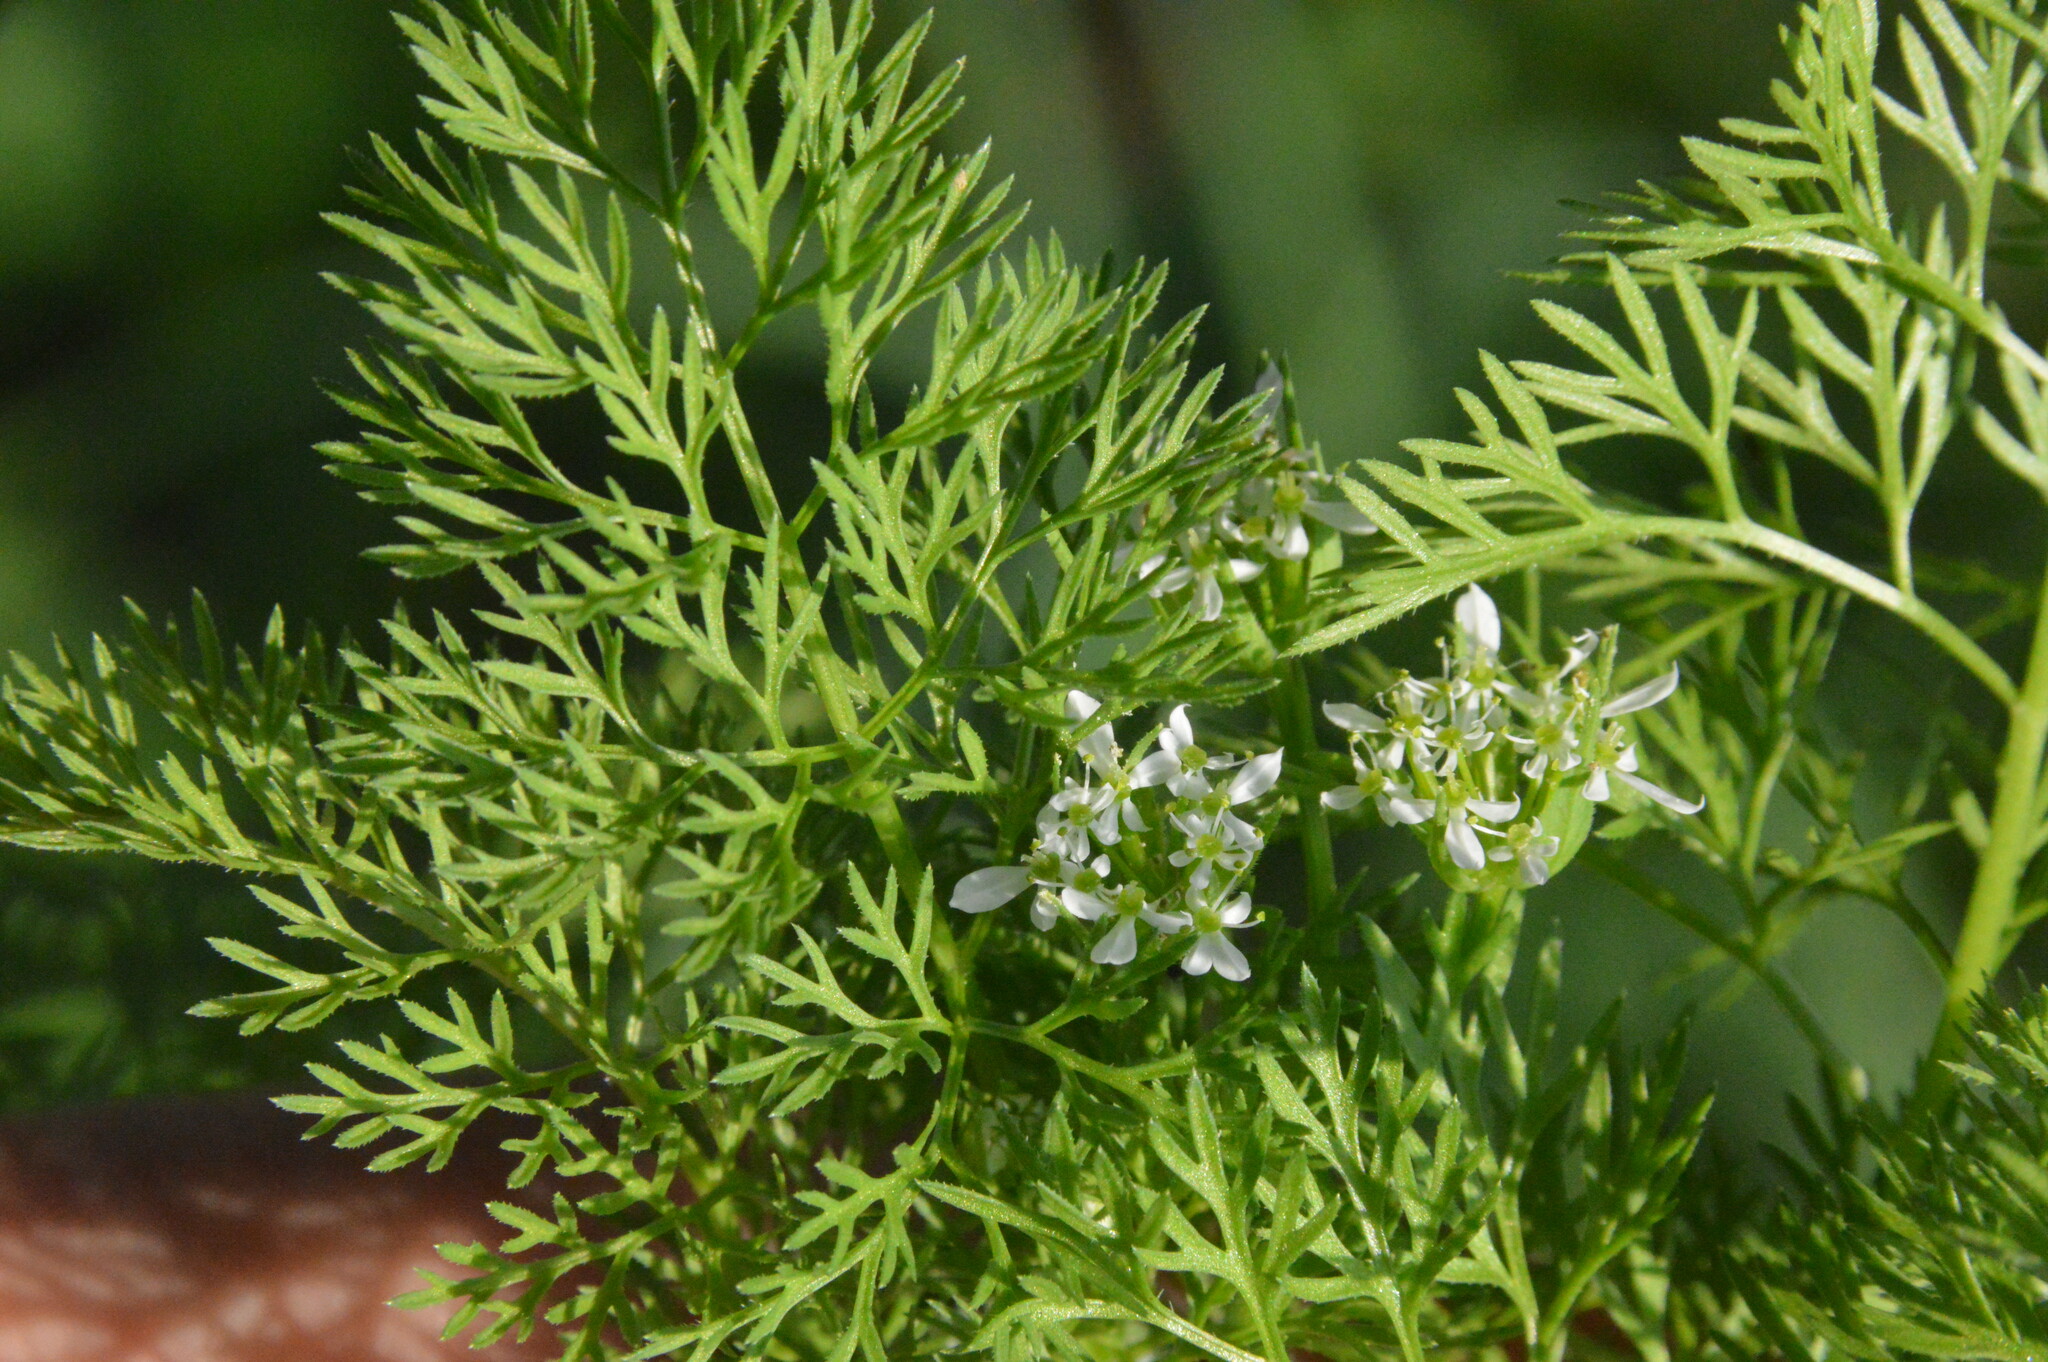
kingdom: Plantae
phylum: Tracheophyta
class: Magnoliopsida
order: Apiales
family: Apiaceae
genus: Scandix
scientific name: Scandix pecten-veneris
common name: Shepherd's-needle
